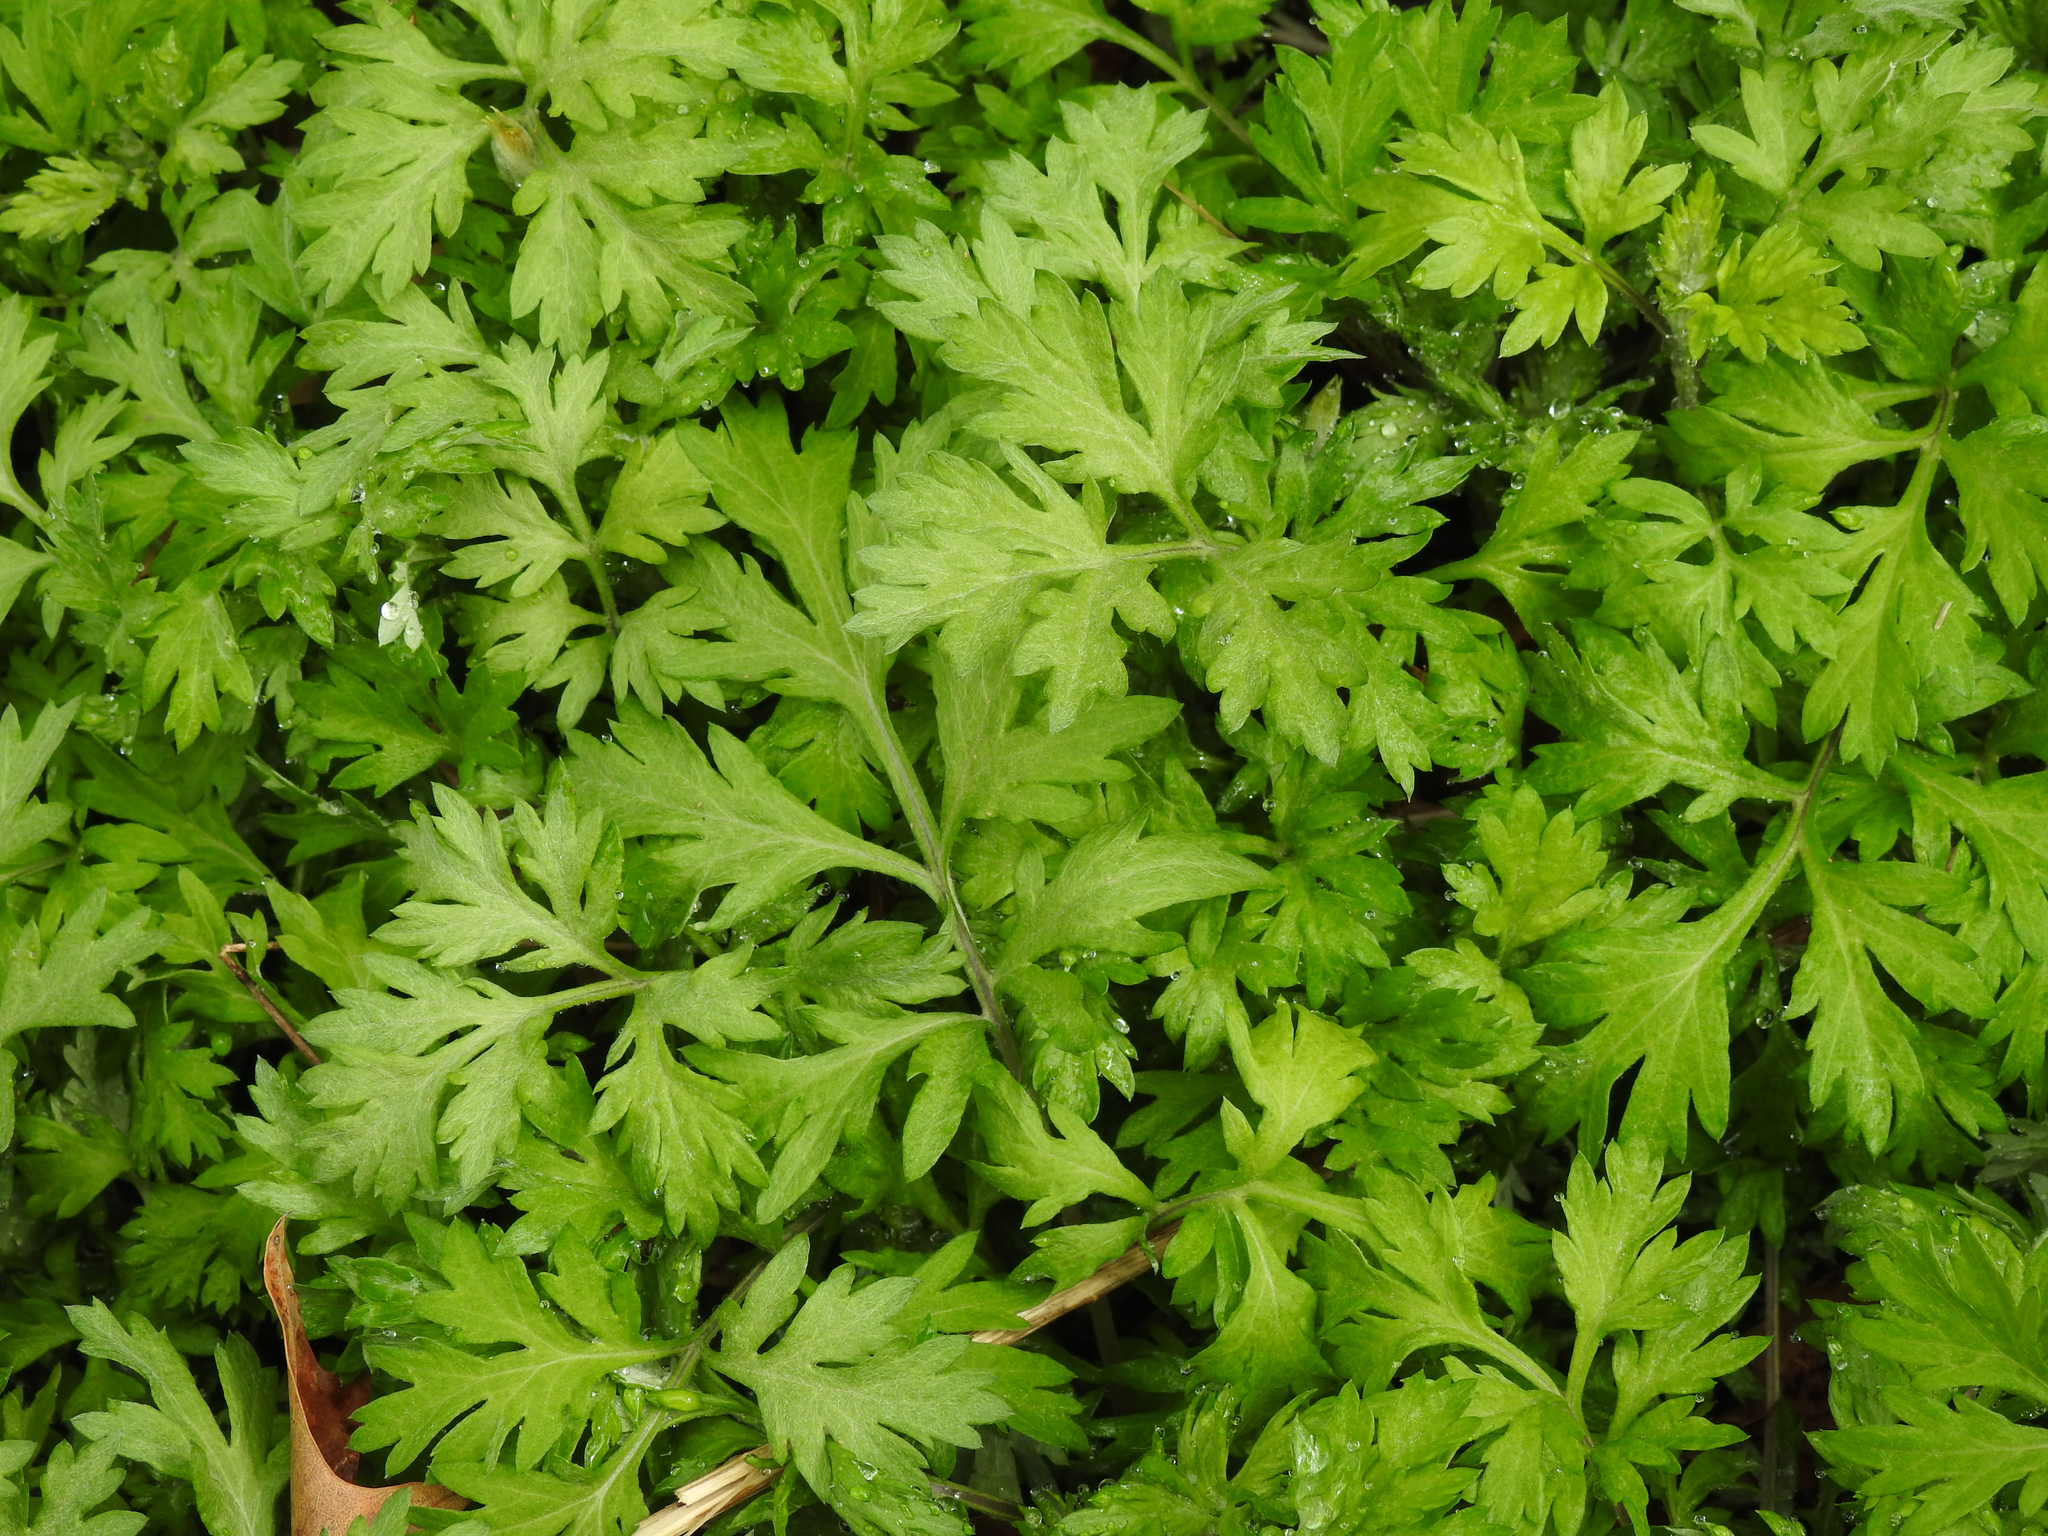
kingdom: Plantae
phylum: Tracheophyta
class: Magnoliopsida
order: Asterales
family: Asteraceae
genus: Artemisia
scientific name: Artemisia vulgaris
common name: Mugwort
